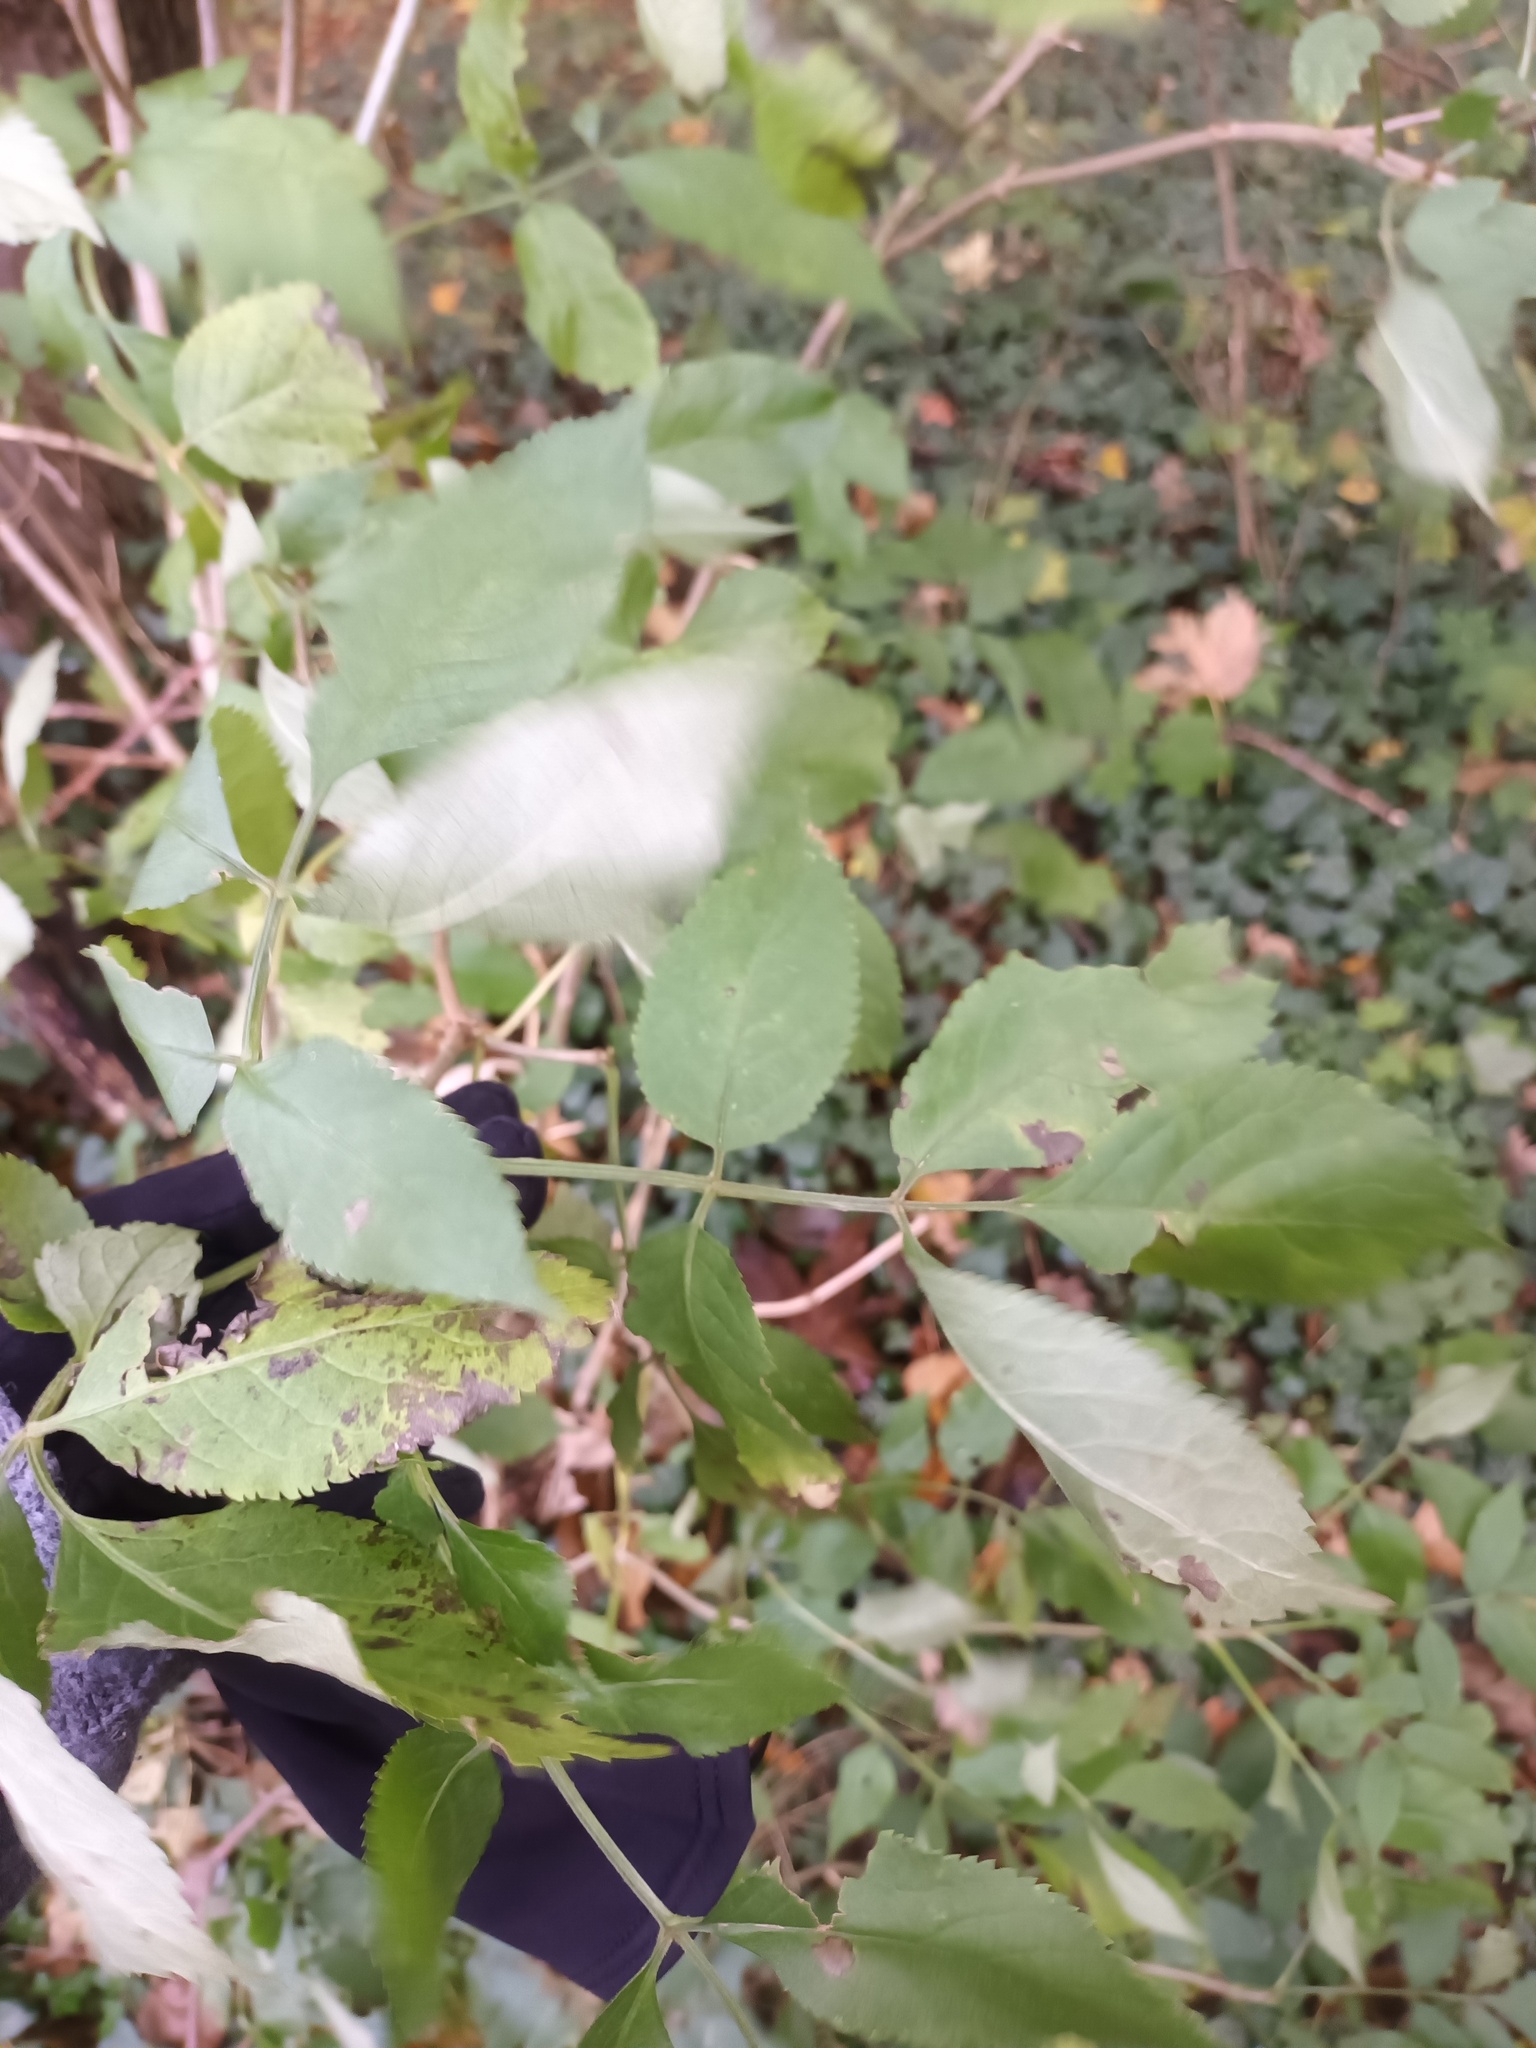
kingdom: Plantae
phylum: Tracheophyta
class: Magnoliopsida
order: Dipsacales
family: Viburnaceae
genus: Sambucus
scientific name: Sambucus nigra
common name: Elder
